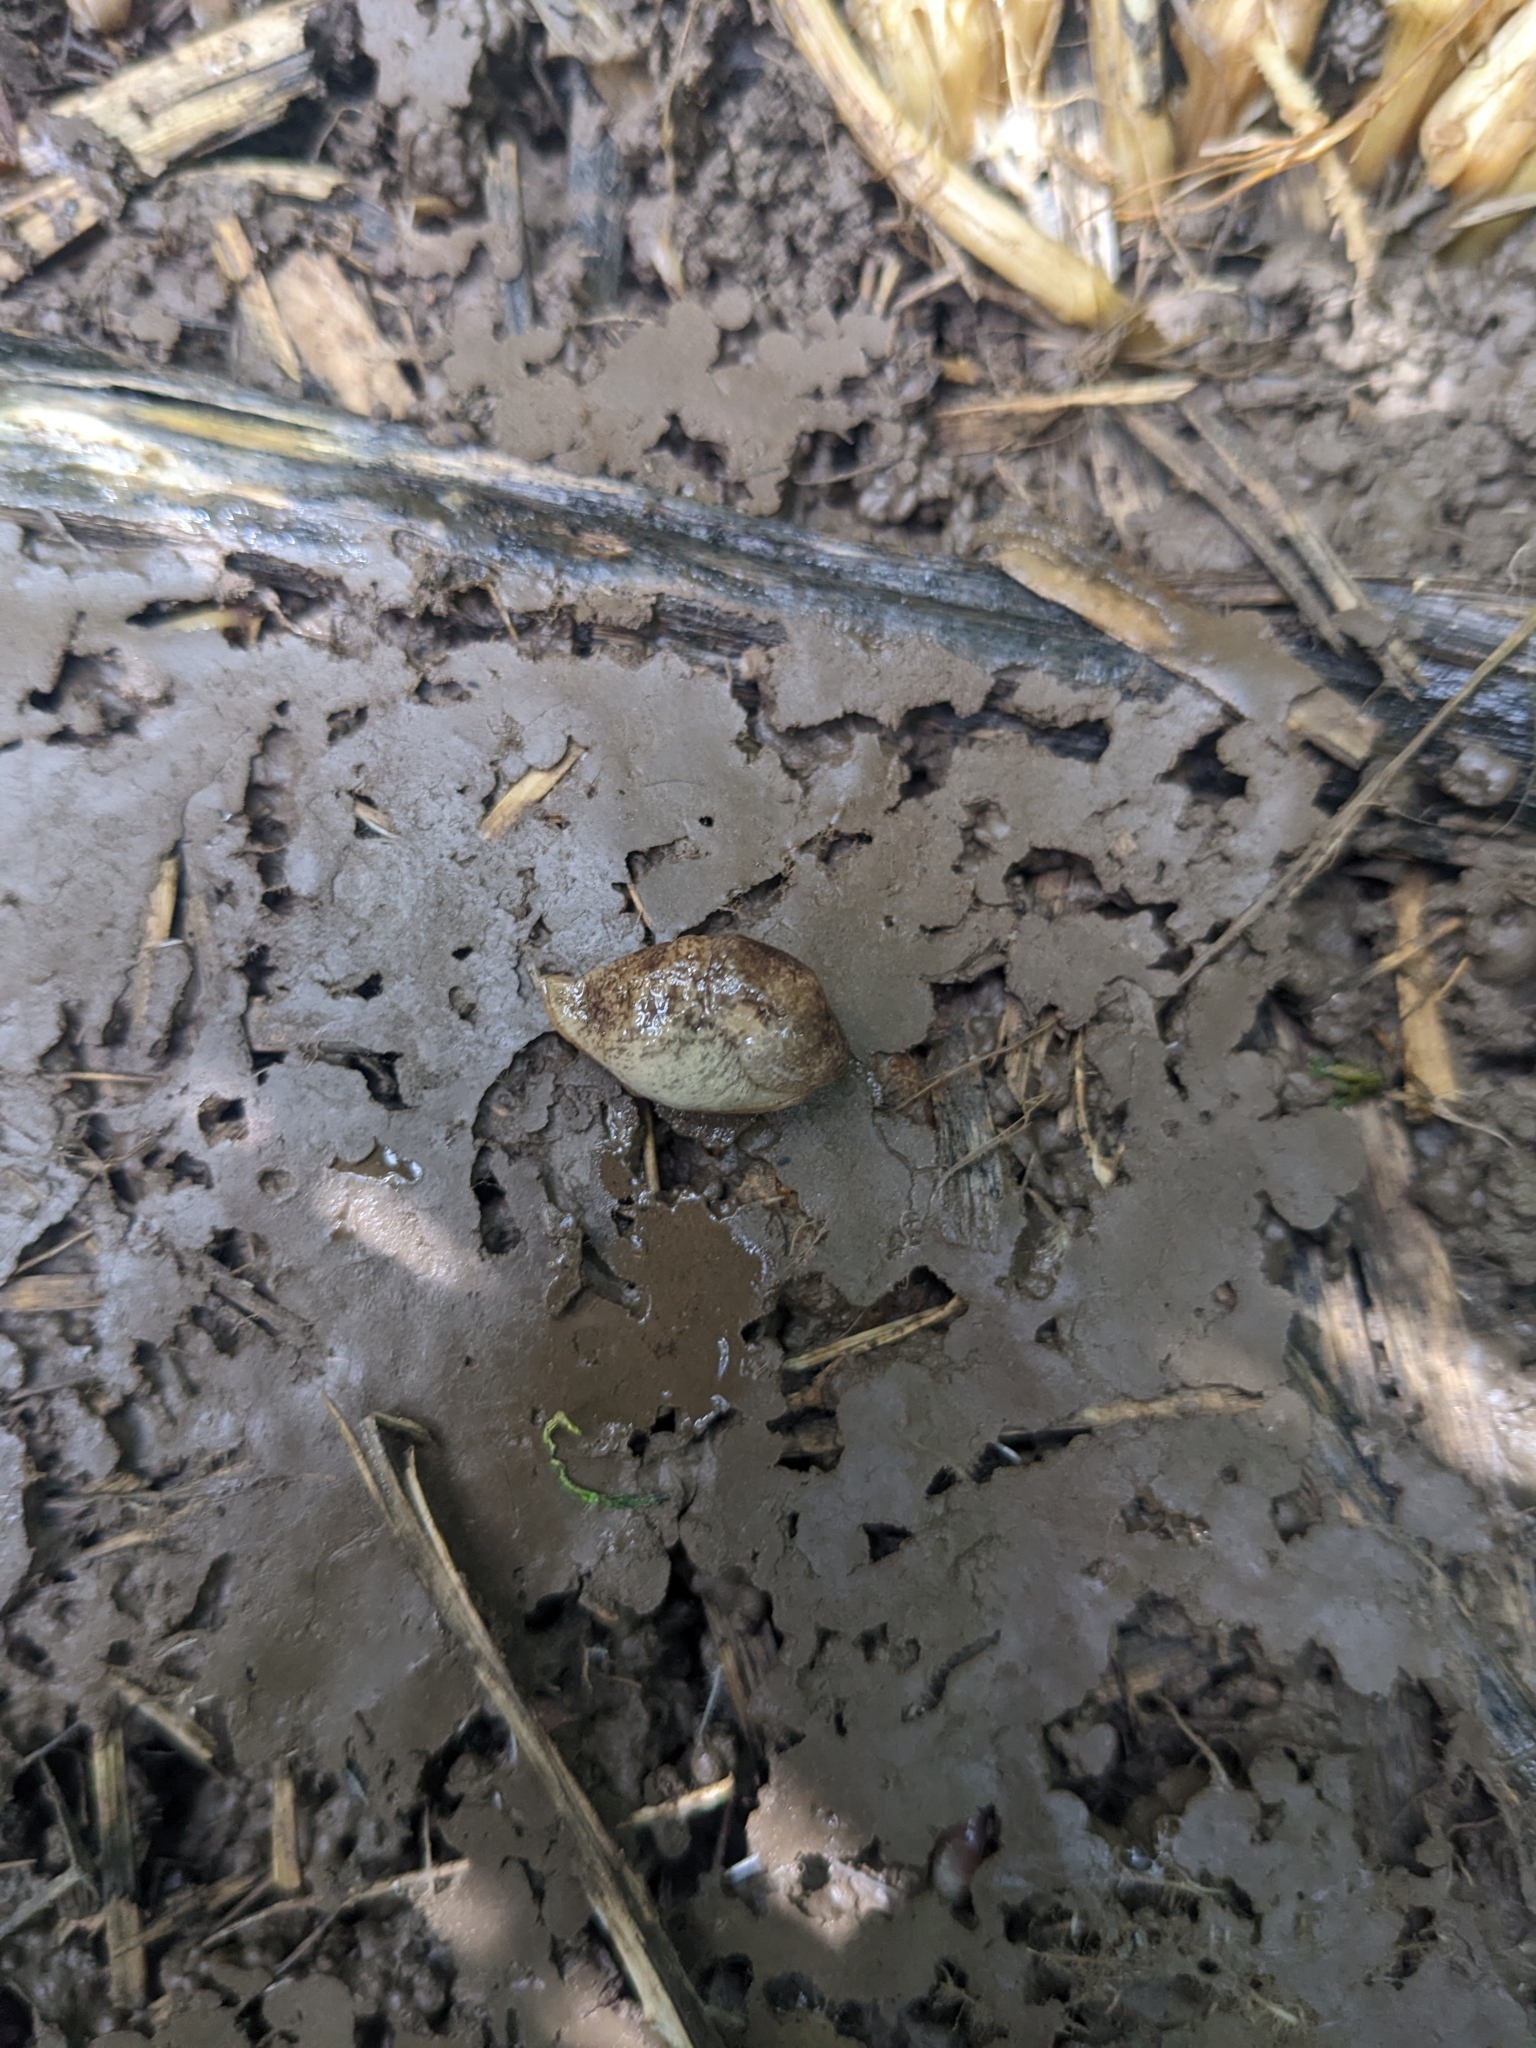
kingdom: Animalia
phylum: Mollusca
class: Gastropoda
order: Stylommatophora
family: Agriolimacidae
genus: Deroceras
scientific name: Deroceras reticulatum
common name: Gray field slug
